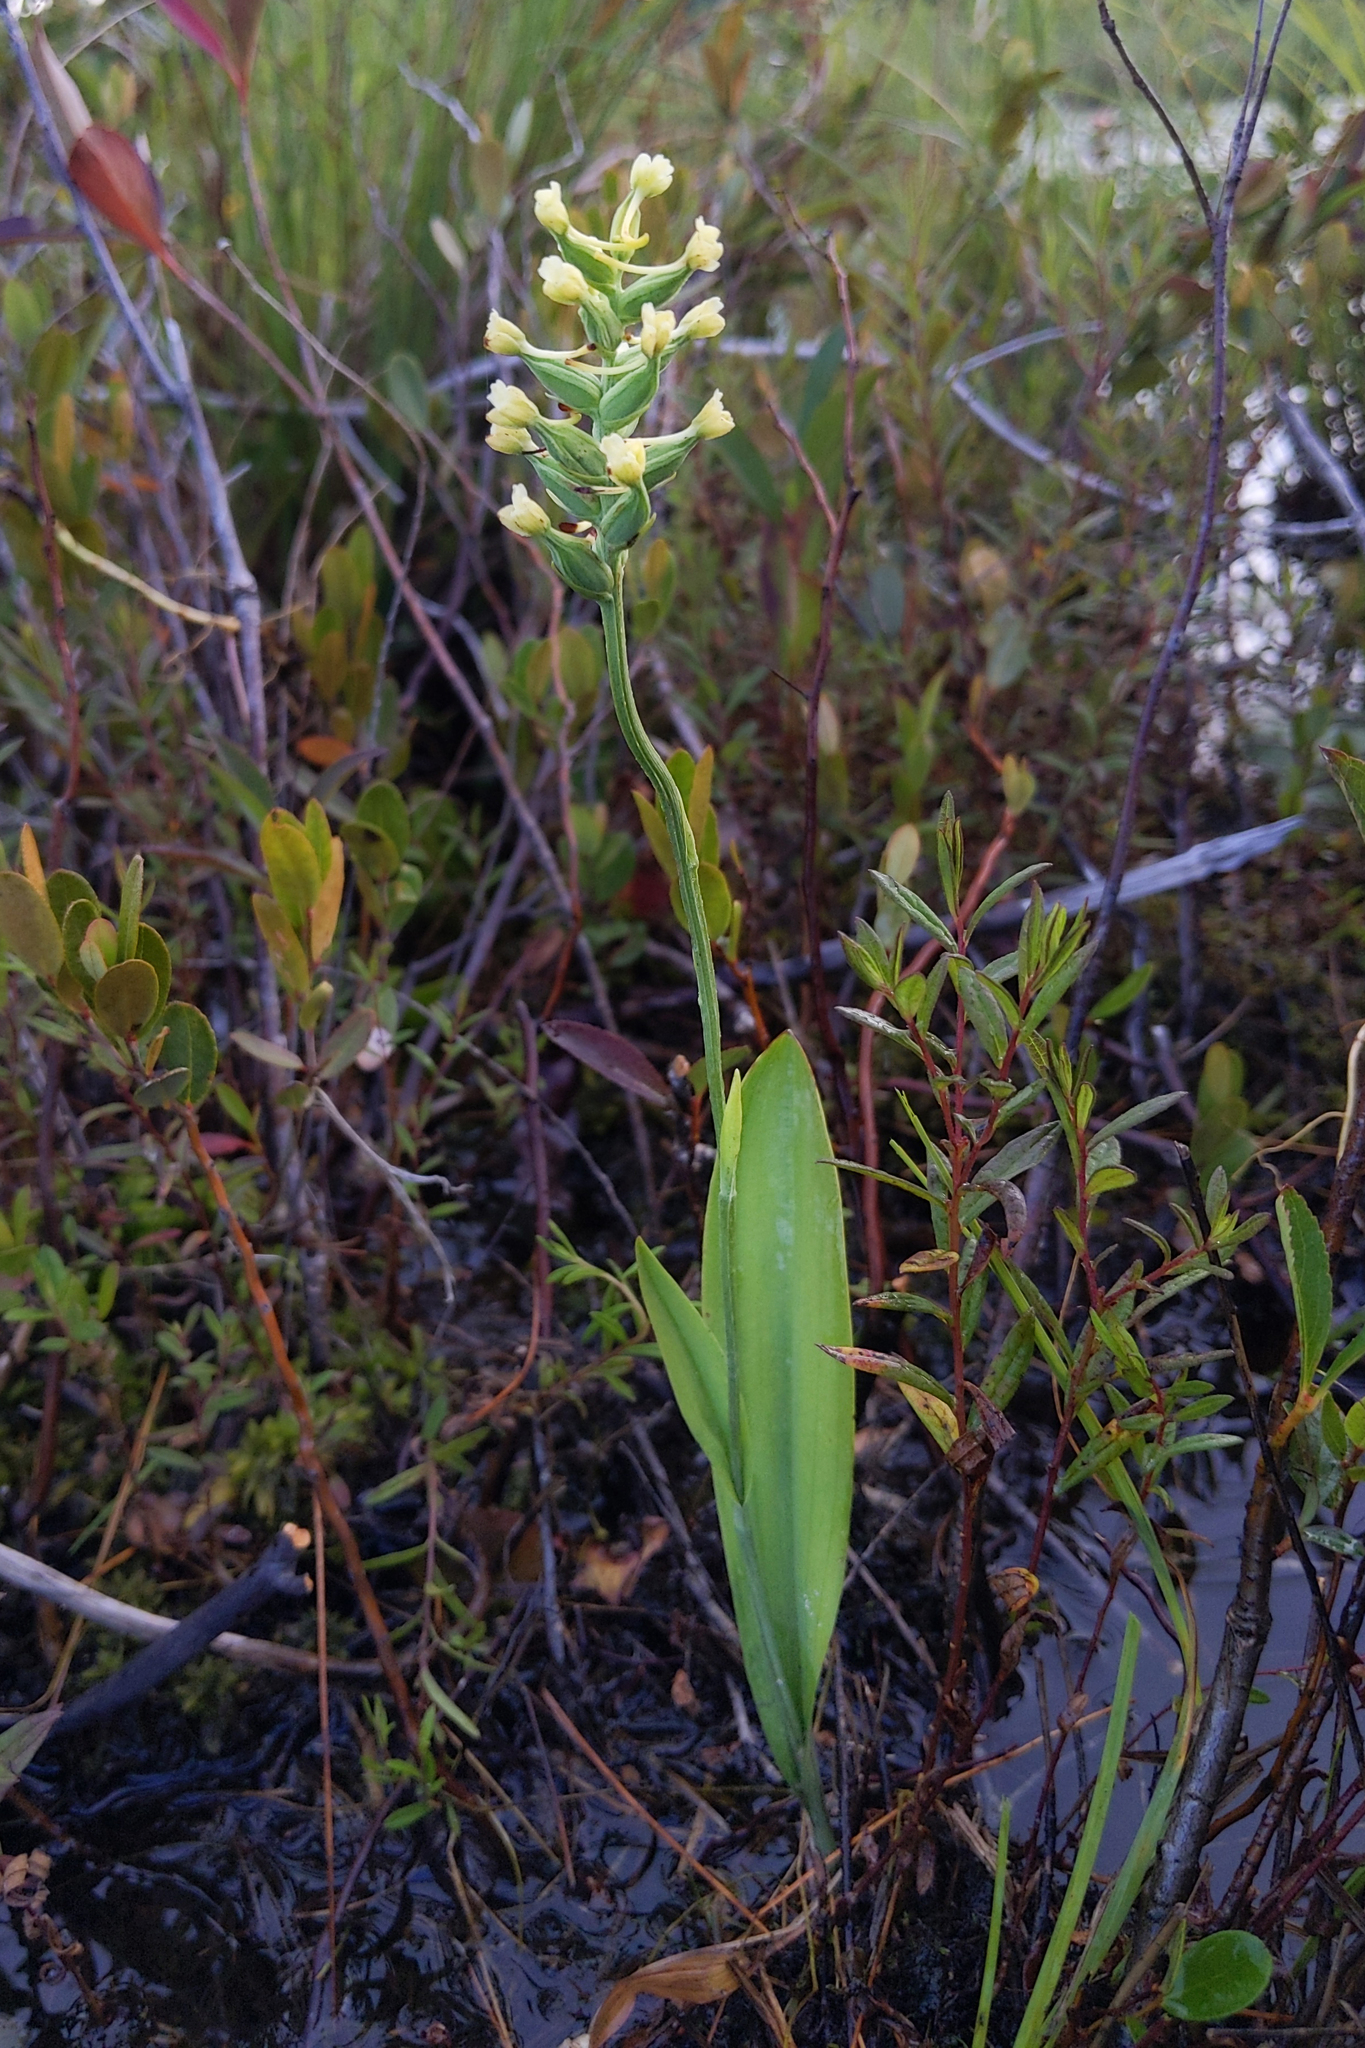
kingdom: Plantae
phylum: Tracheophyta
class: Liliopsida
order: Asparagales
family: Orchidaceae
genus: Platanthera
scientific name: Platanthera clavellata
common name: Club-spur orchid
